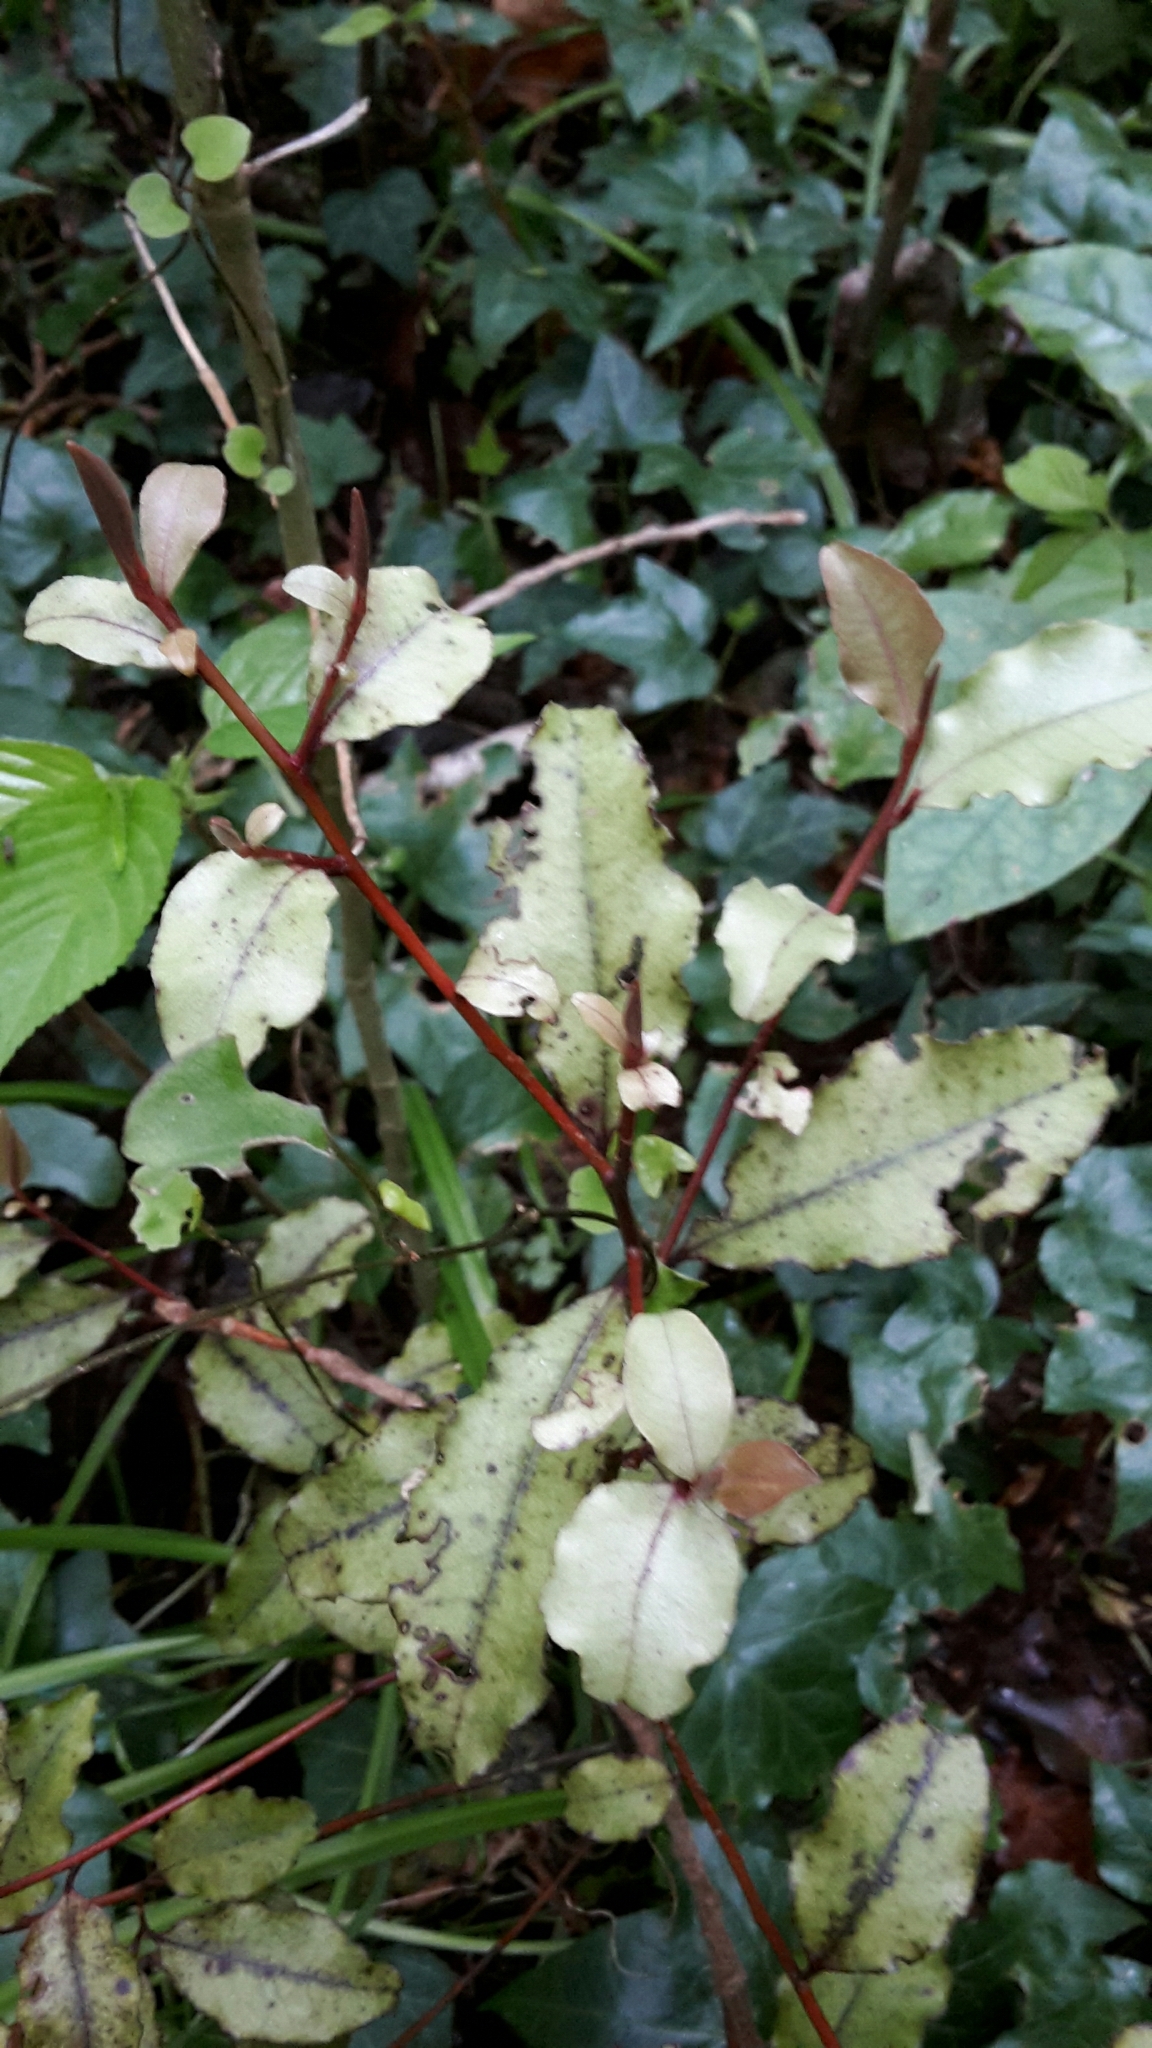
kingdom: Plantae
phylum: Tracheophyta
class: Magnoliopsida
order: Ericales
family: Primulaceae
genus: Myrsine
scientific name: Myrsine australis
